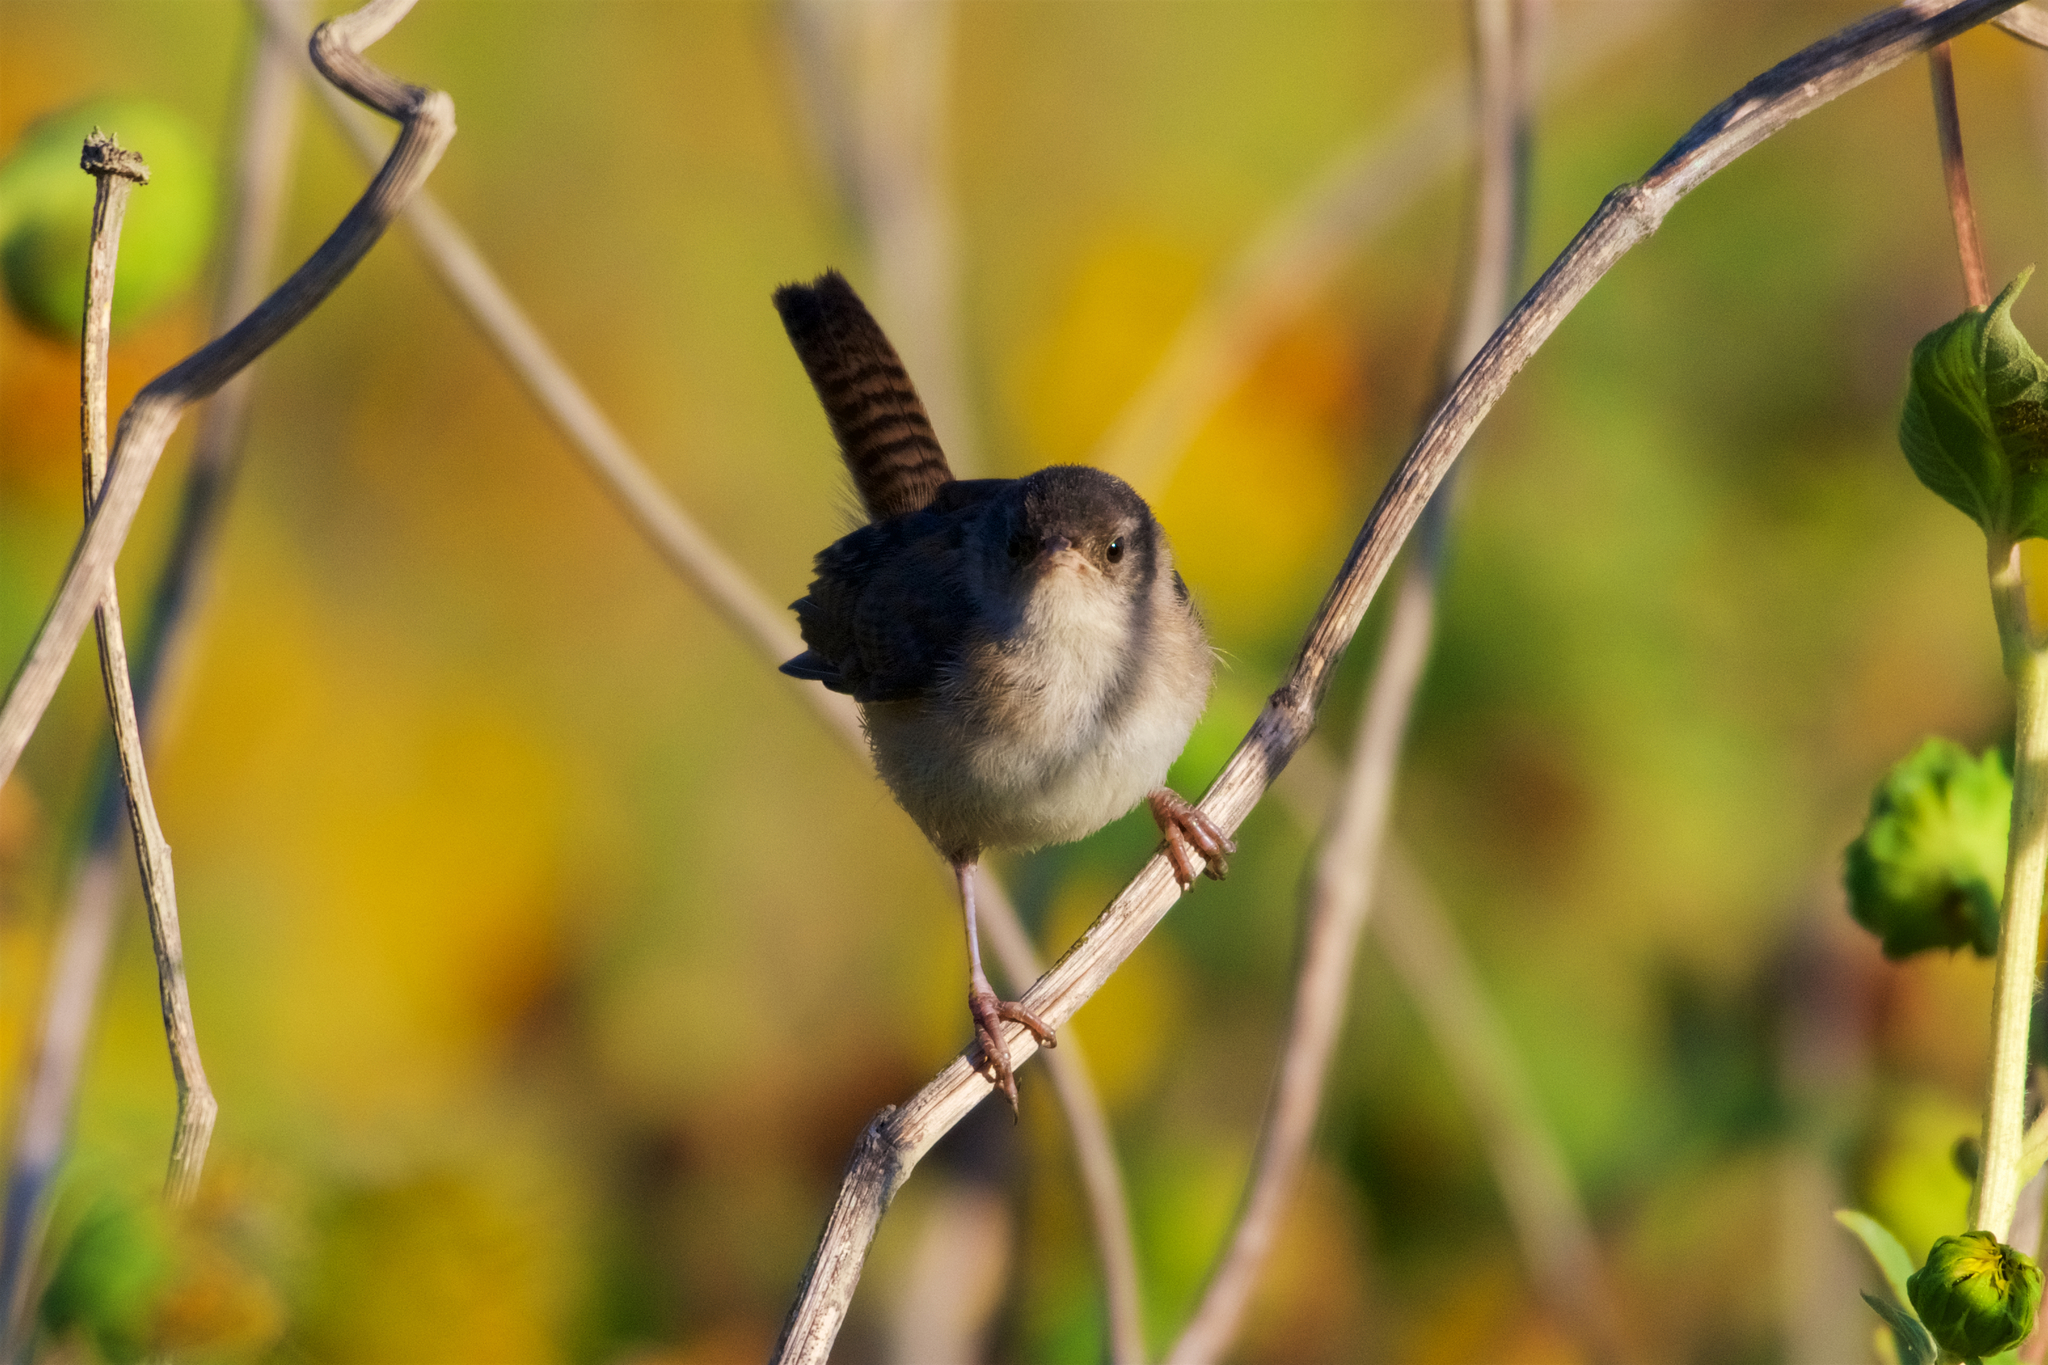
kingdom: Animalia
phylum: Chordata
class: Aves
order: Passeriformes
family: Troglodytidae
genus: Cistothorus
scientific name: Cistothorus palustris
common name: Marsh wren
